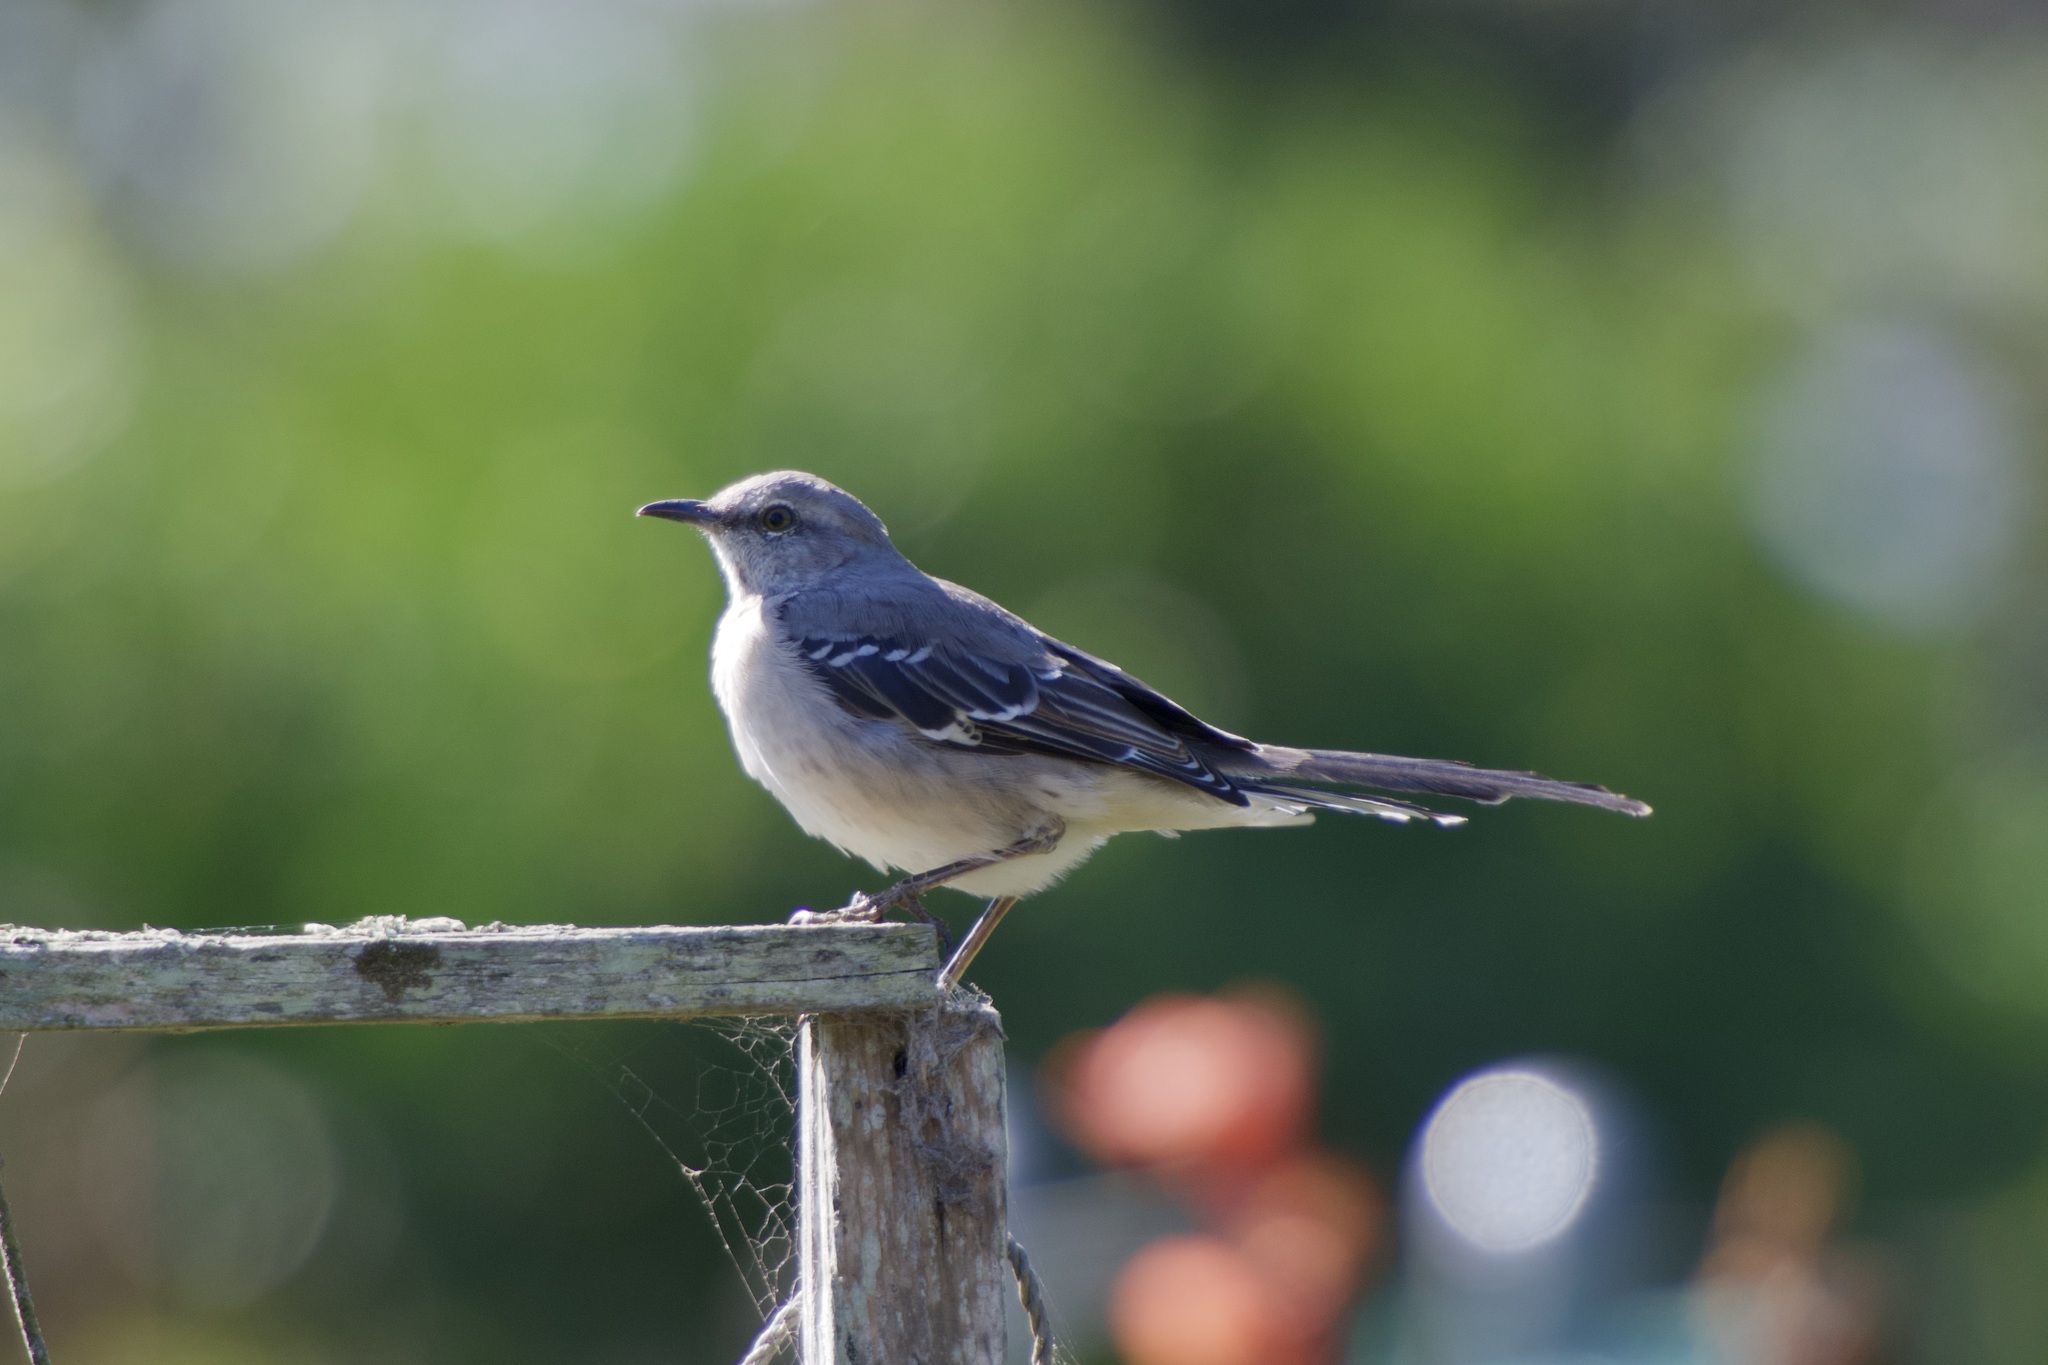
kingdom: Animalia
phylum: Chordata
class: Aves
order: Passeriformes
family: Mimidae
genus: Mimus
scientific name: Mimus polyglottos
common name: Northern mockingbird
